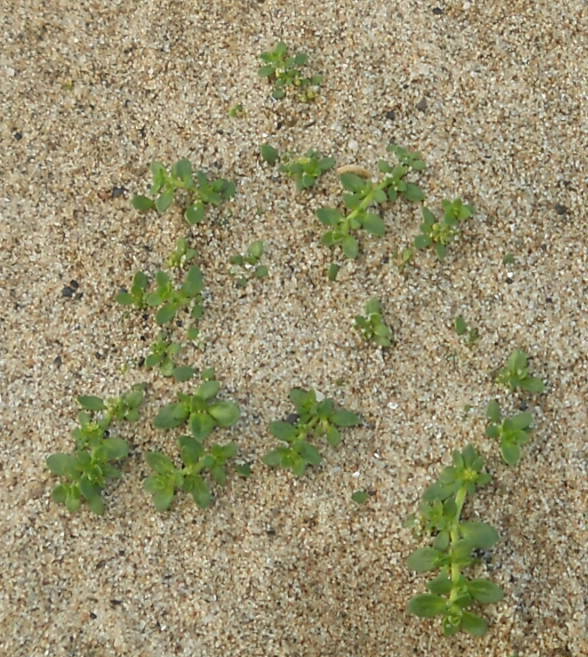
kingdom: Plantae
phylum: Tracheophyta
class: Magnoliopsida
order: Caryophyllales
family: Caryophyllaceae
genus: Herniaria
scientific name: Herniaria glabra
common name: Smooth rupturewort
